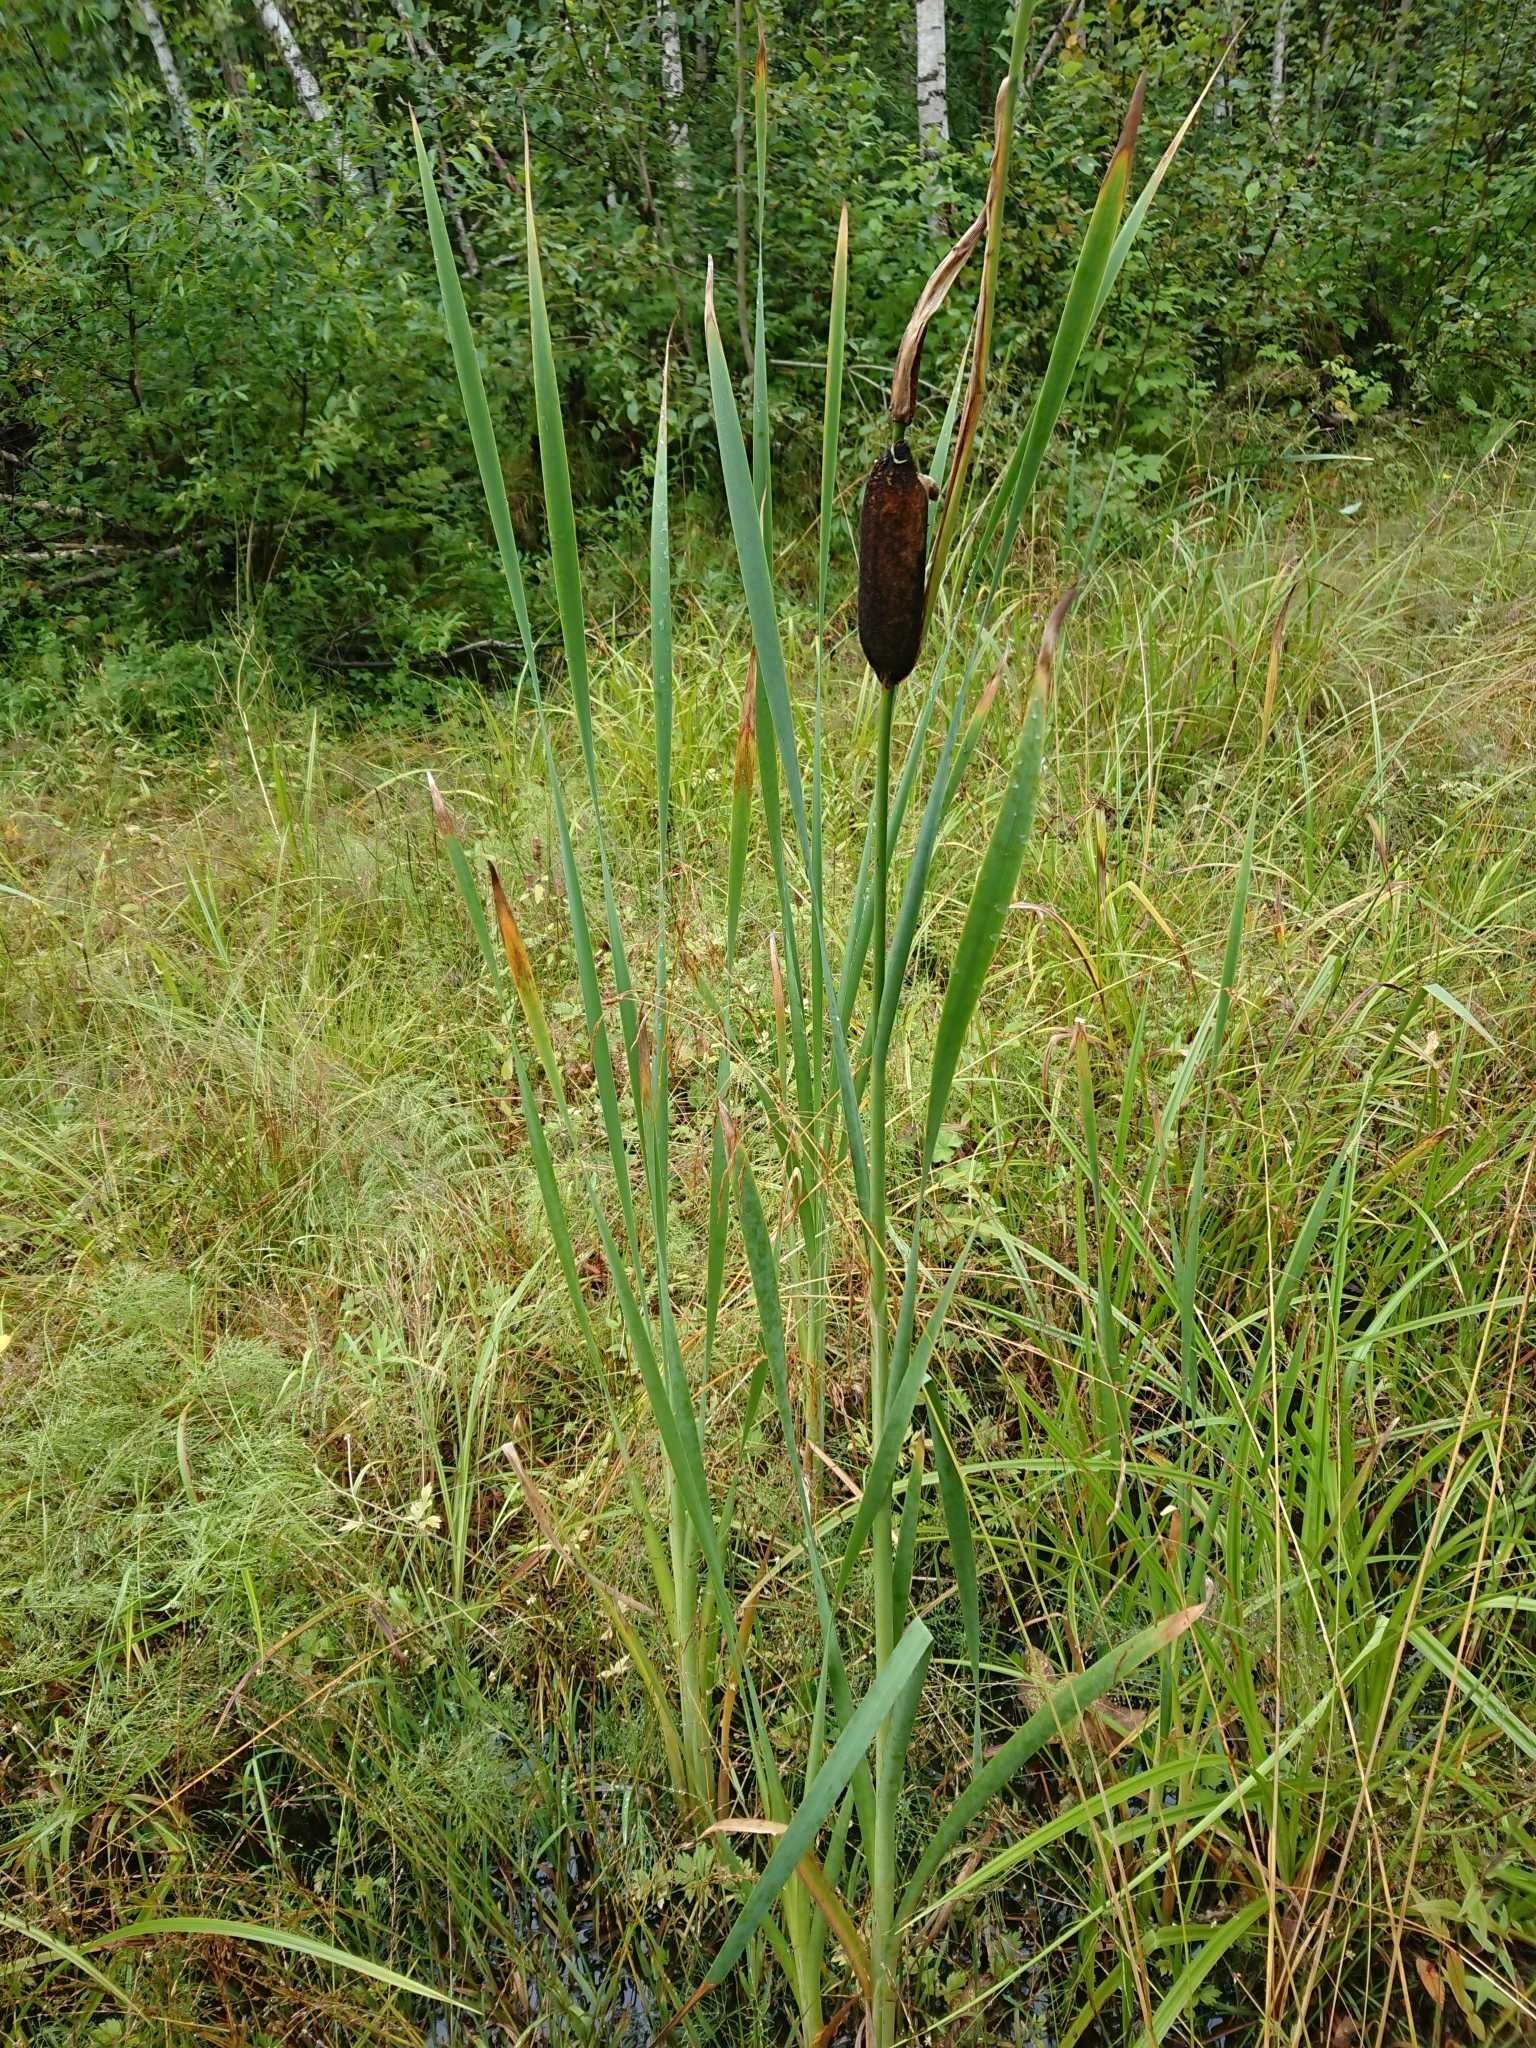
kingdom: Plantae
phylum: Tracheophyta
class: Liliopsida
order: Poales
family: Typhaceae
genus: Typha
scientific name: Typha latifolia
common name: Broadleaf cattail
